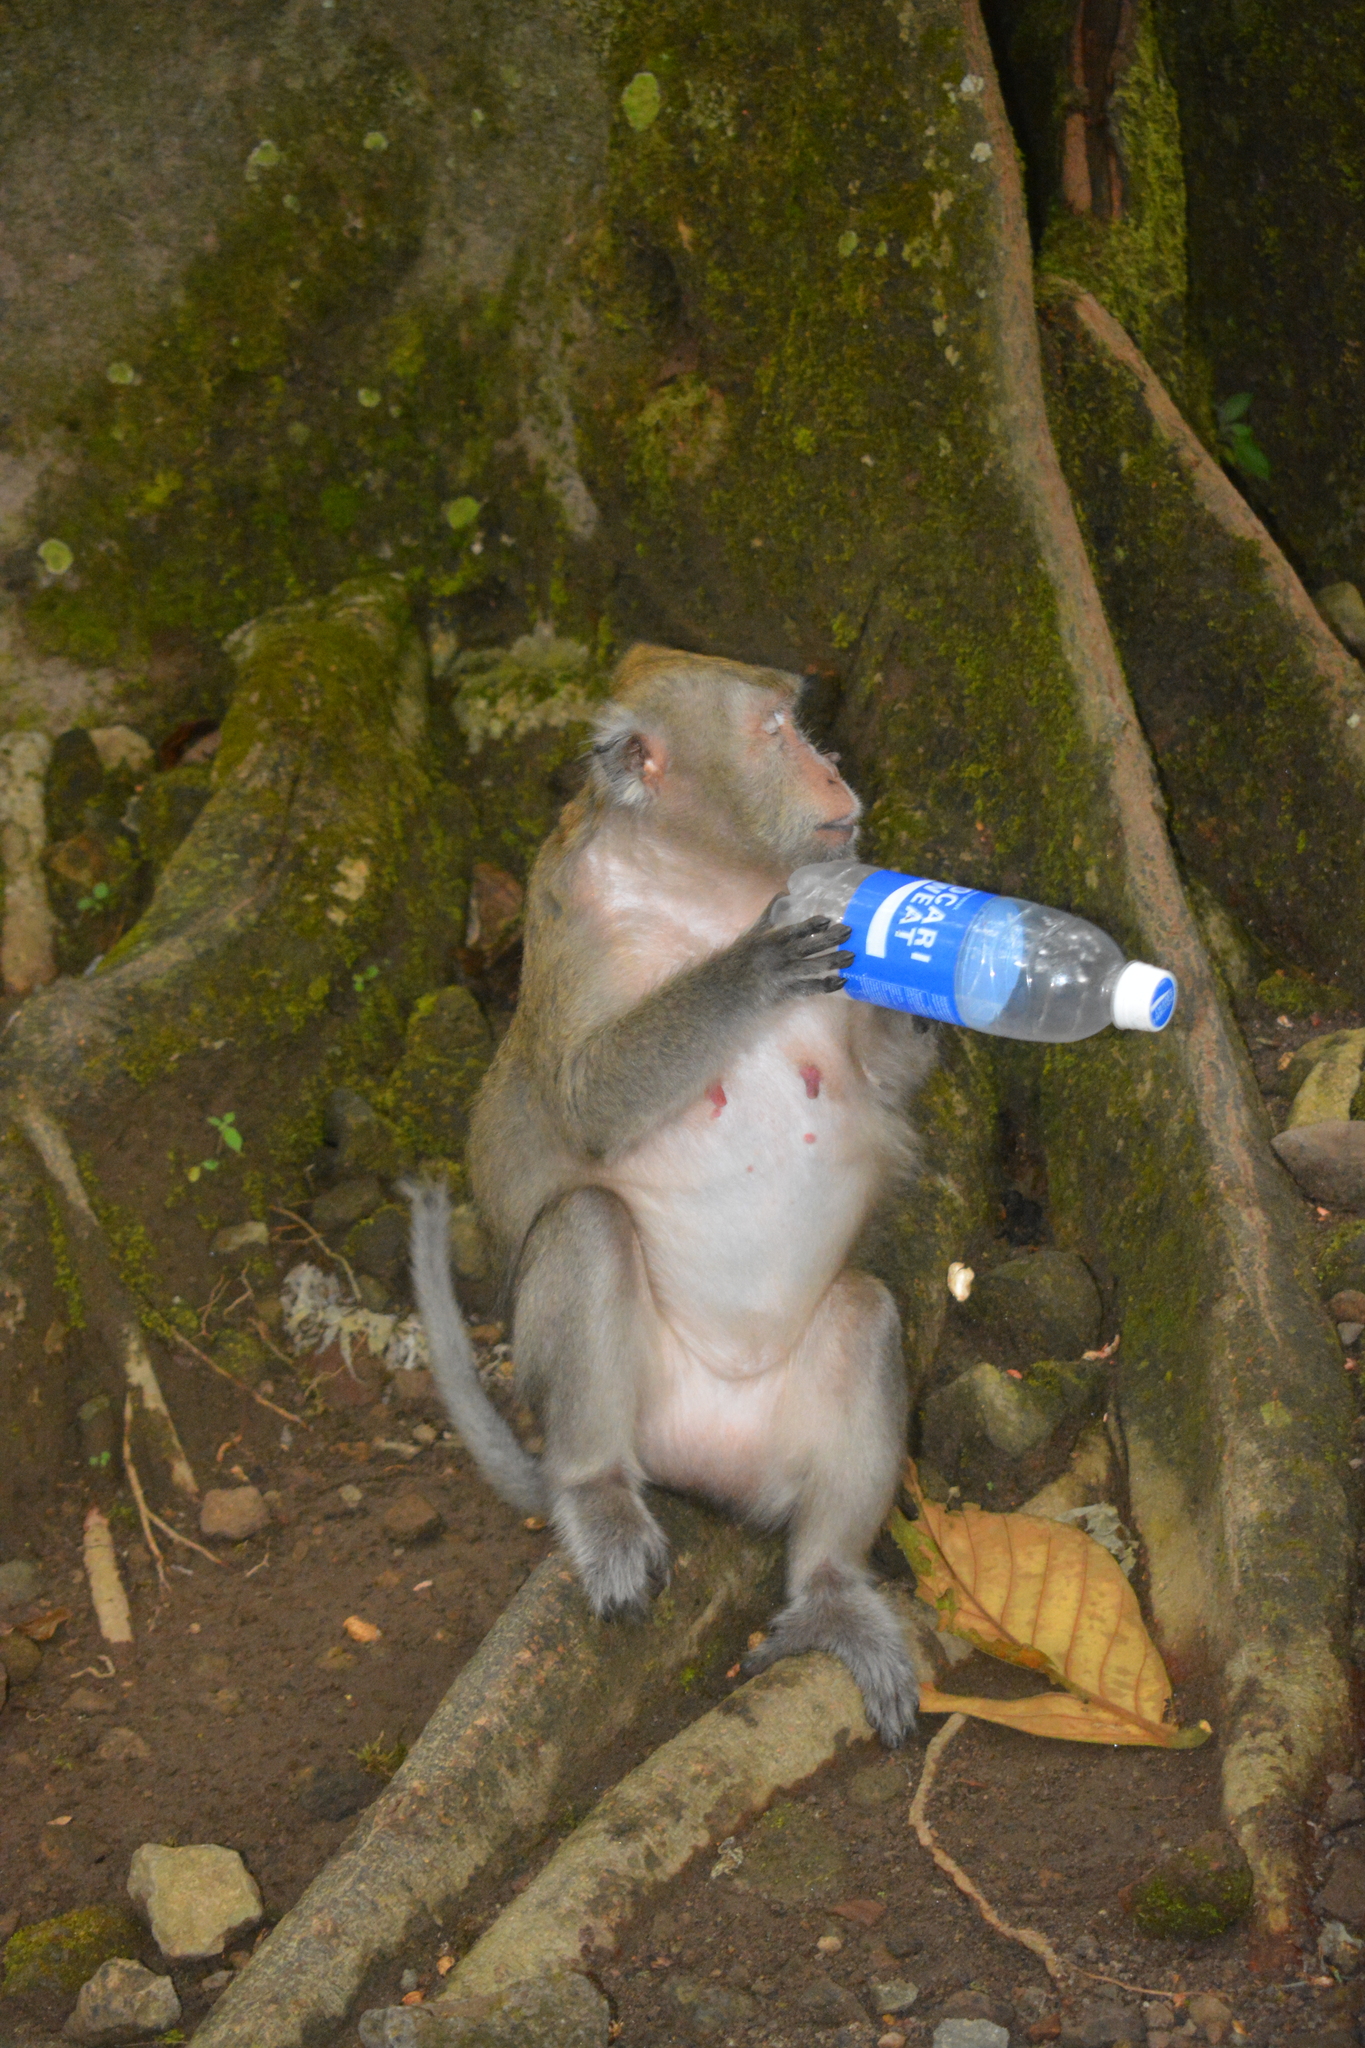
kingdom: Animalia
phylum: Chordata
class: Mammalia
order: Primates
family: Cercopithecidae
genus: Macaca
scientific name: Macaca fascicularis
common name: Crab-eating macaque
